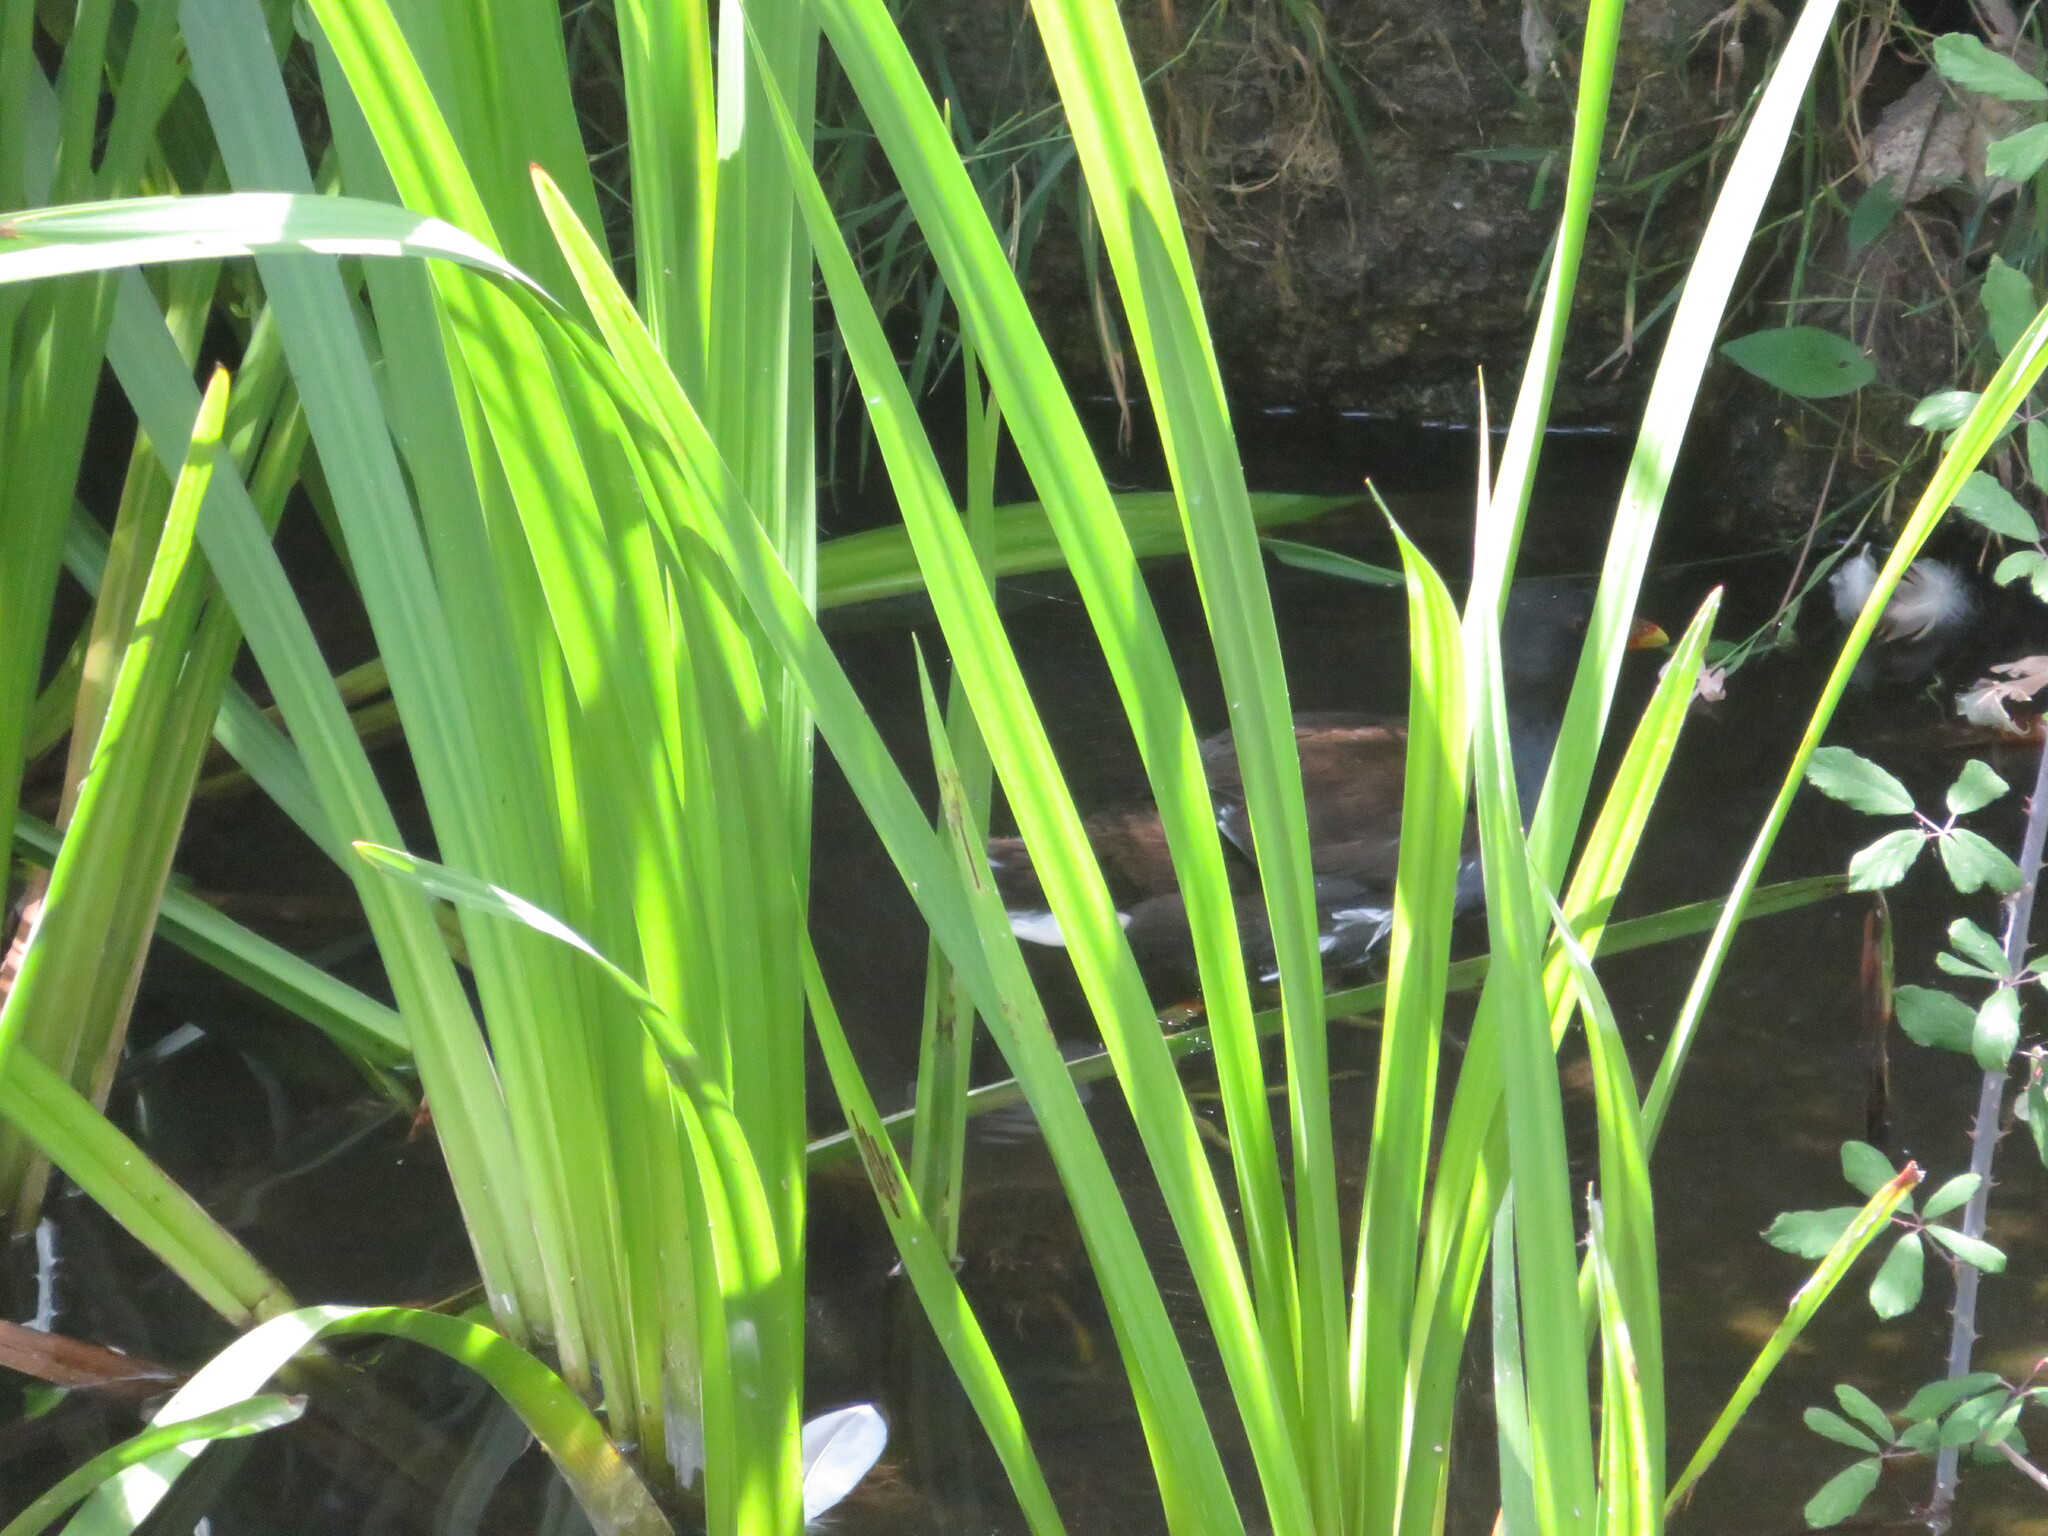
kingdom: Animalia
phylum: Chordata
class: Aves
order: Gruiformes
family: Rallidae
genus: Gallinula
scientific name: Gallinula chloropus
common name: Common moorhen
